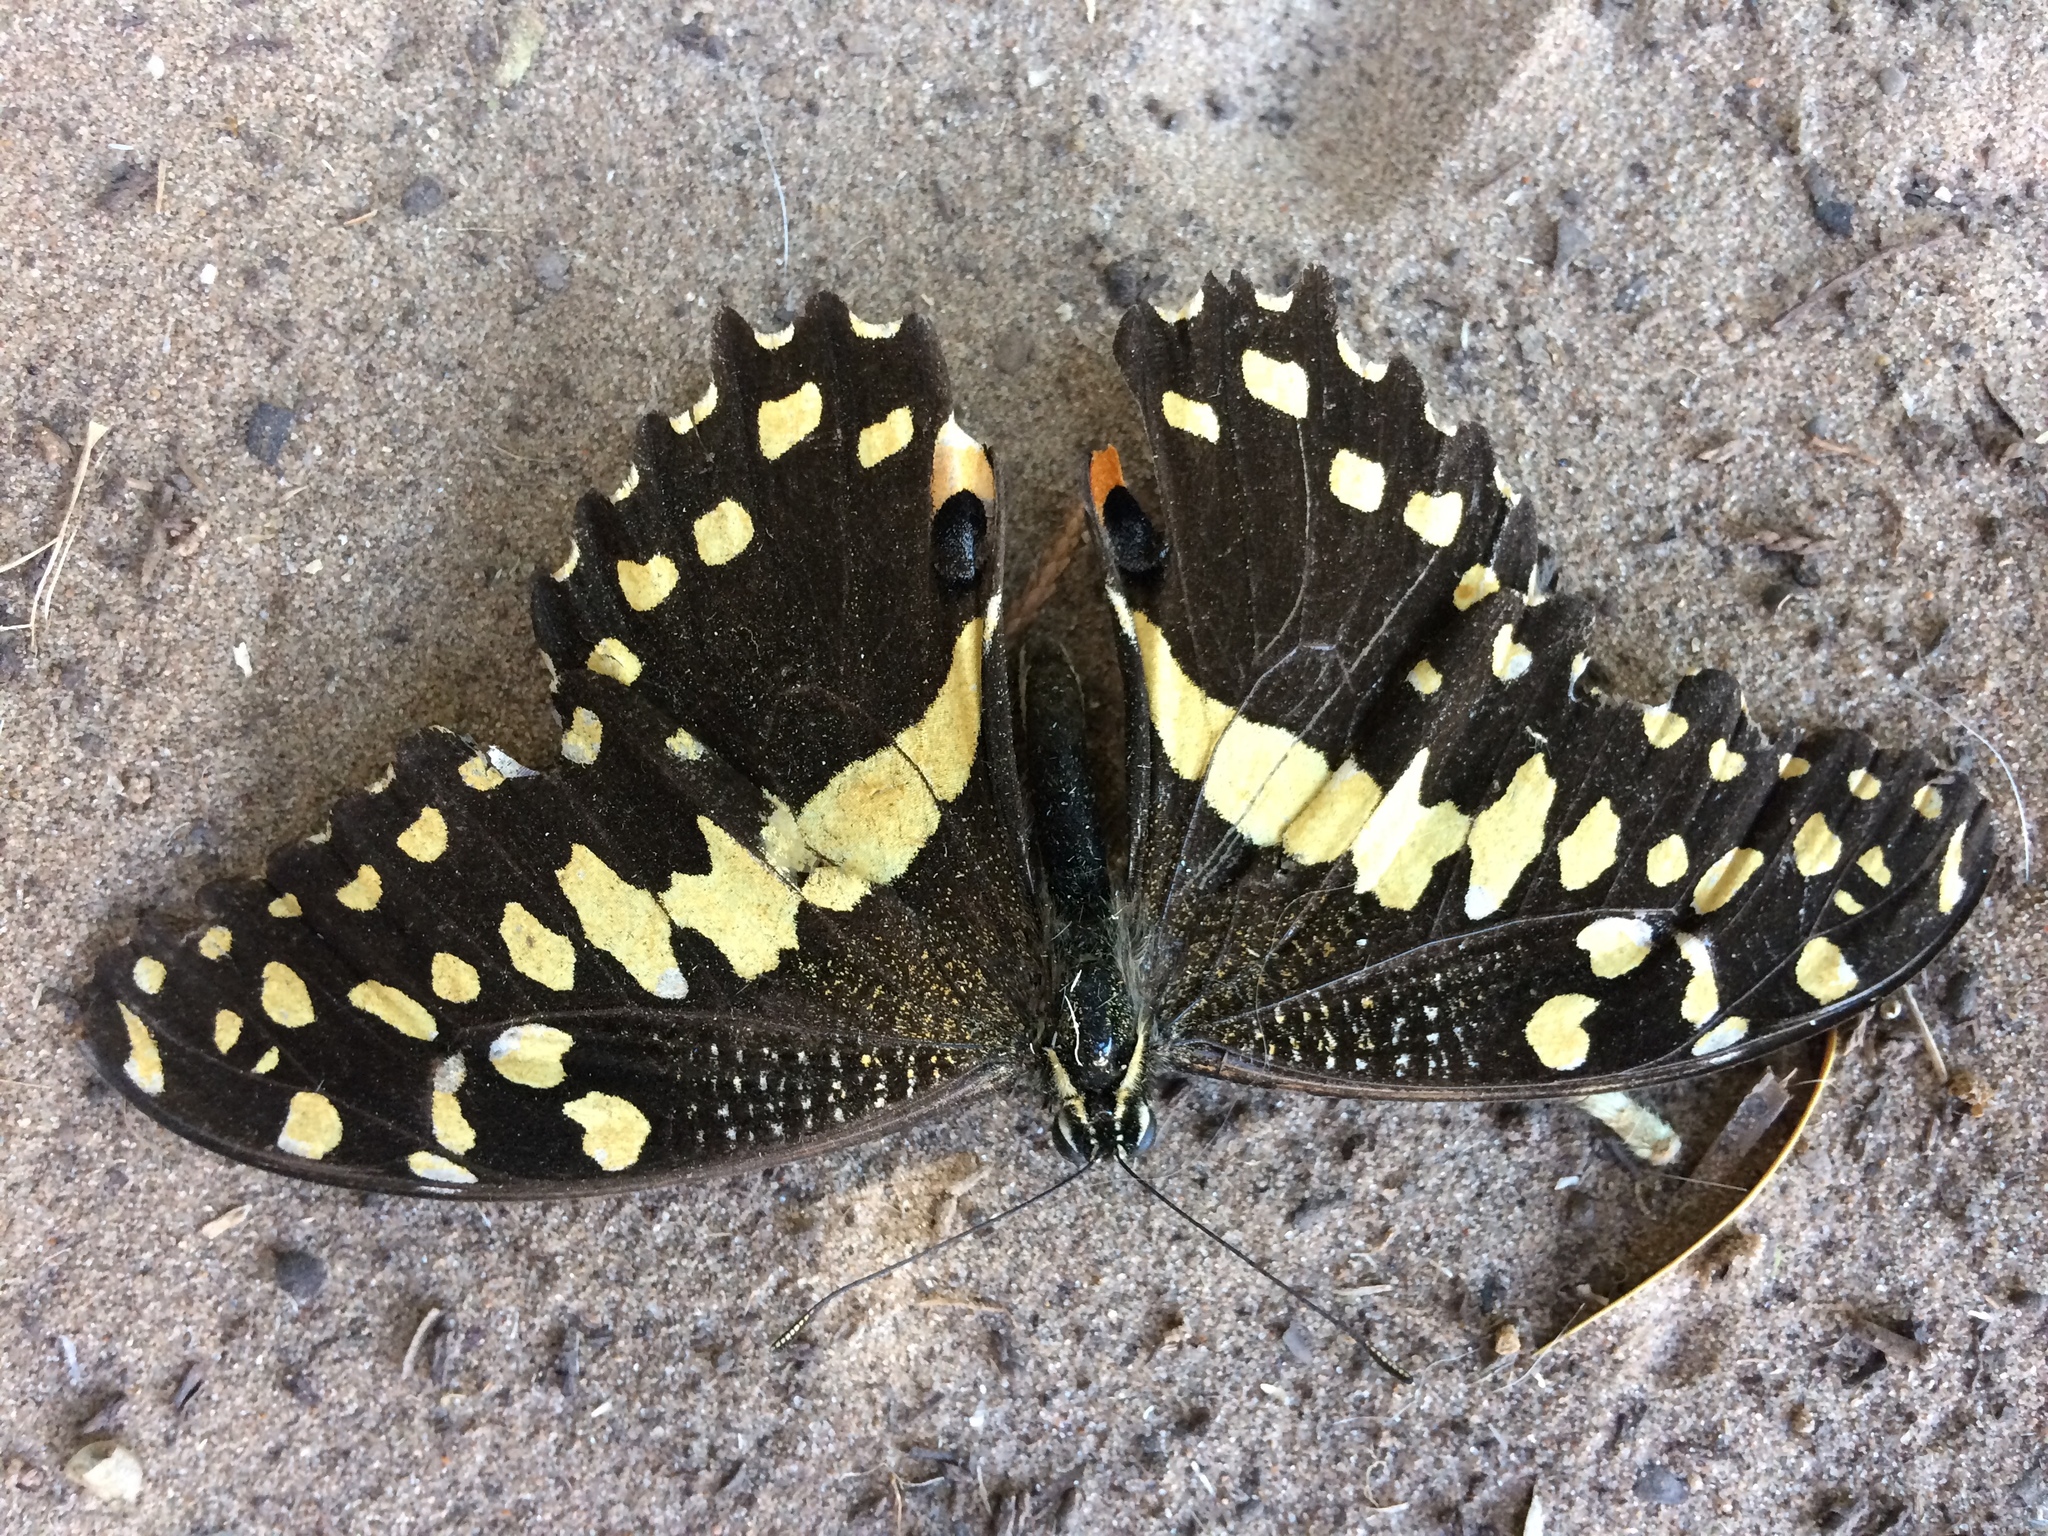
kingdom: Animalia
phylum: Arthropoda
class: Insecta
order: Lepidoptera
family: Papilionidae
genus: Papilio
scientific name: Papilio demodocus
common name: Christmas butterfly
